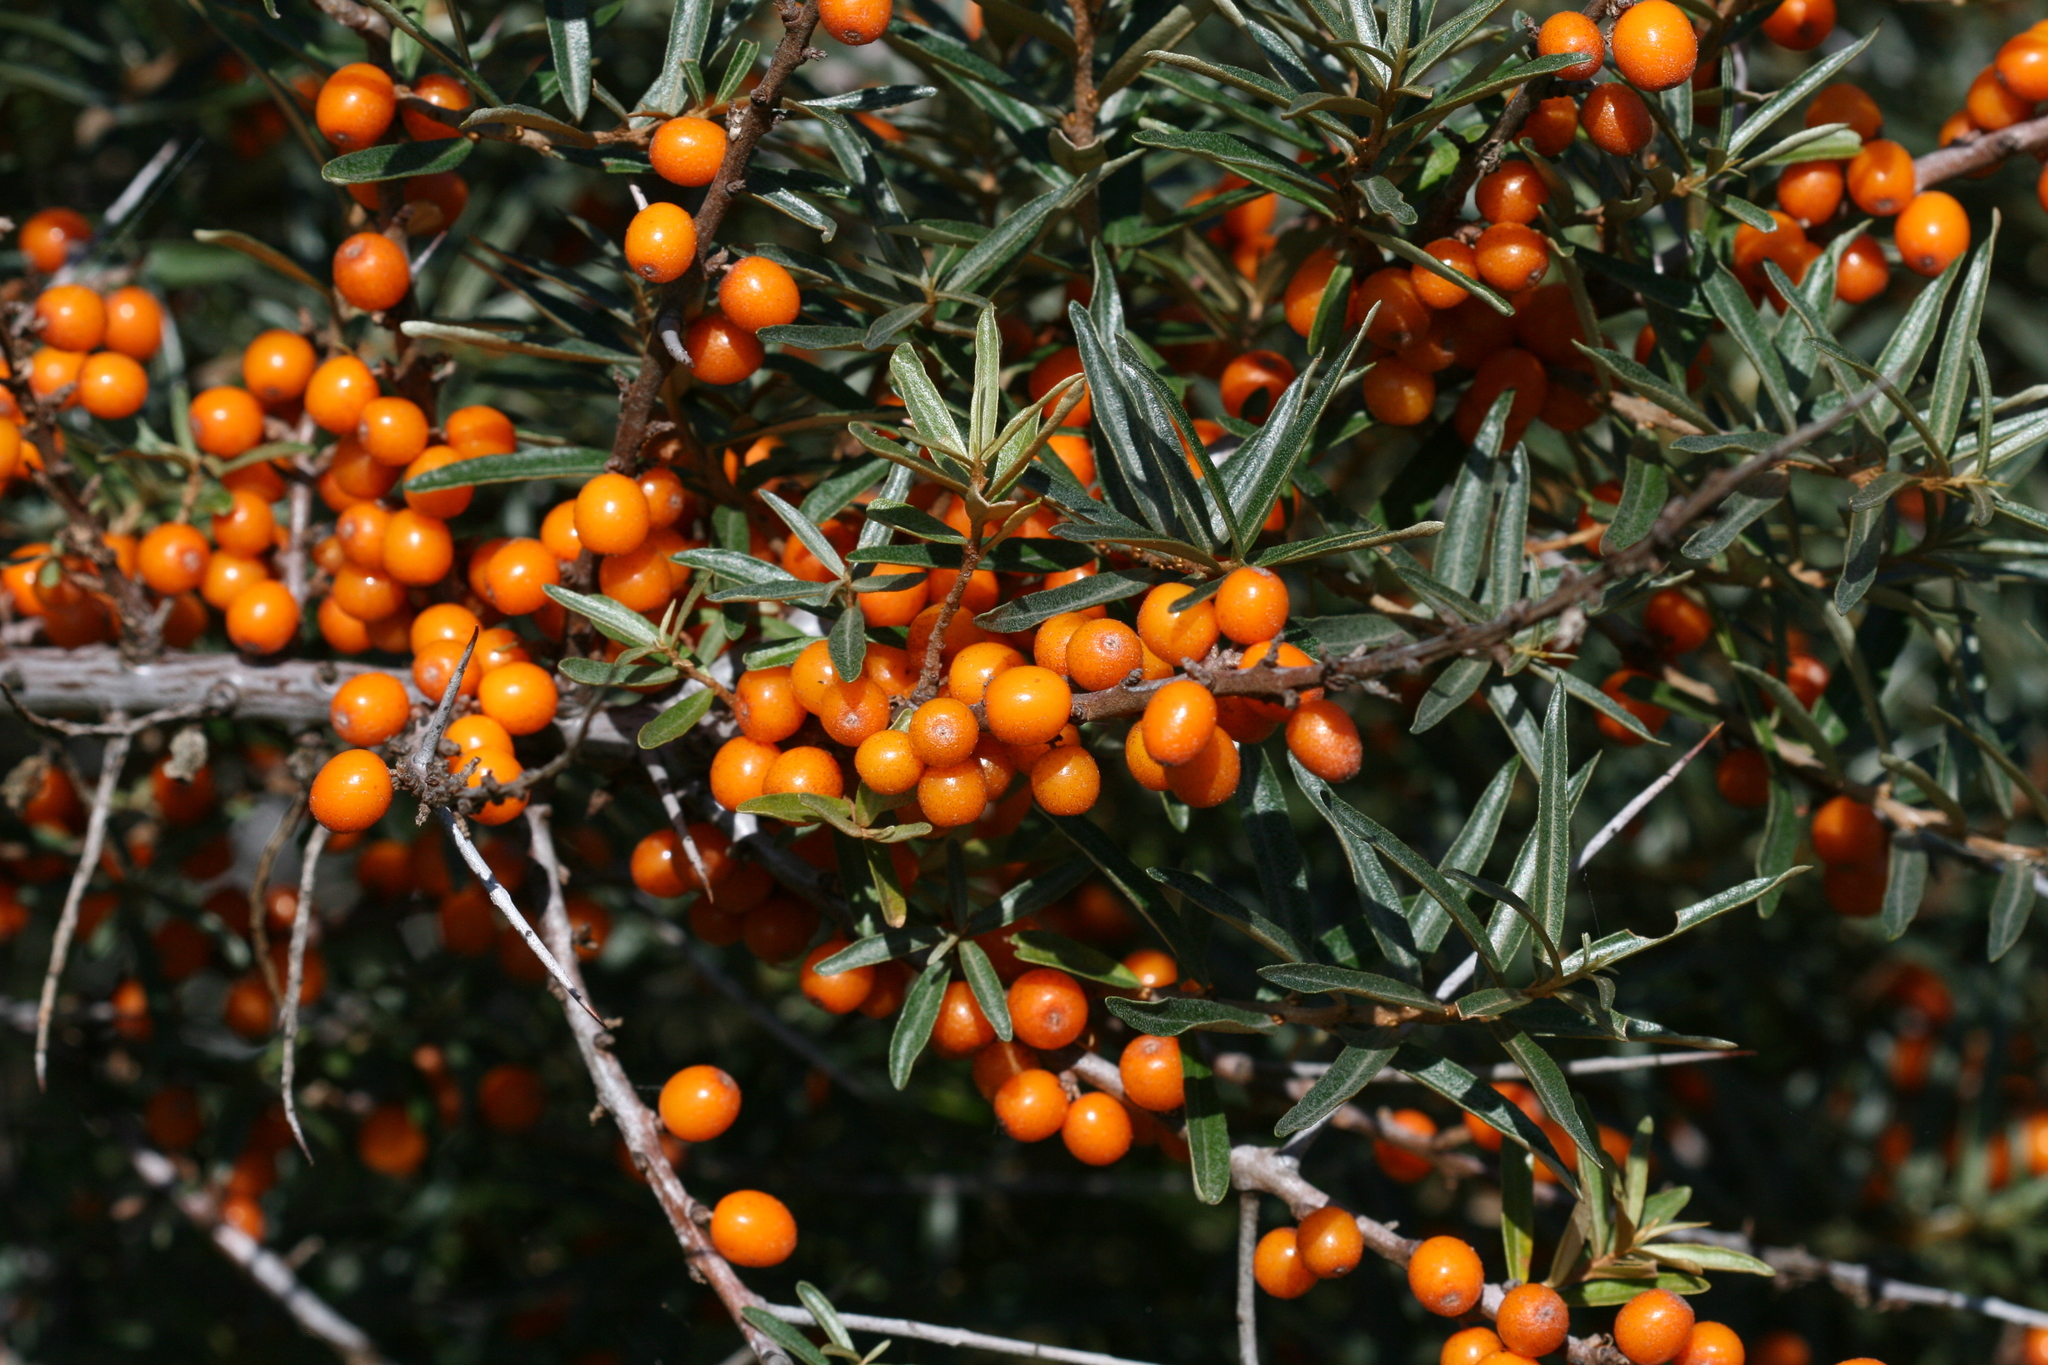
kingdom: Plantae
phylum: Tracheophyta
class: Magnoliopsida
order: Rosales
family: Elaeagnaceae
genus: Hippophae
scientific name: Hippophae rhamnoides
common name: Sea-buckthorn
